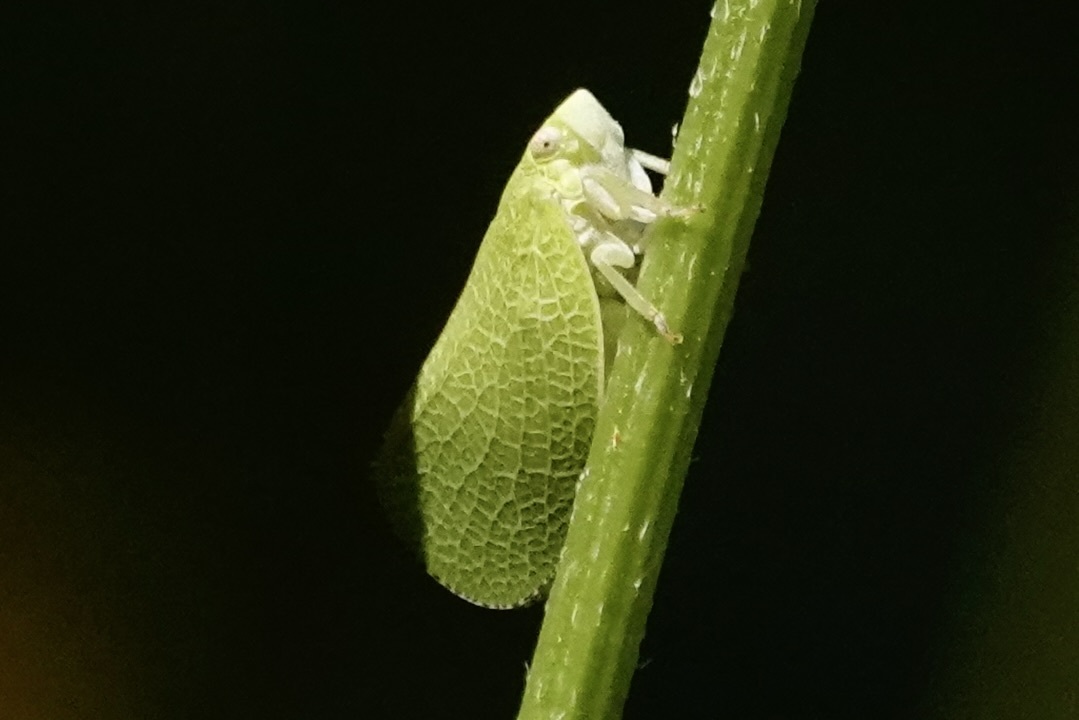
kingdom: Animalia
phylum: Arthropoda
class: Insecta
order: Hemiptera
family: Acanaloniidae
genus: Acanalonia
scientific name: Acanalonia conica
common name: Green cone-headed planthopper
